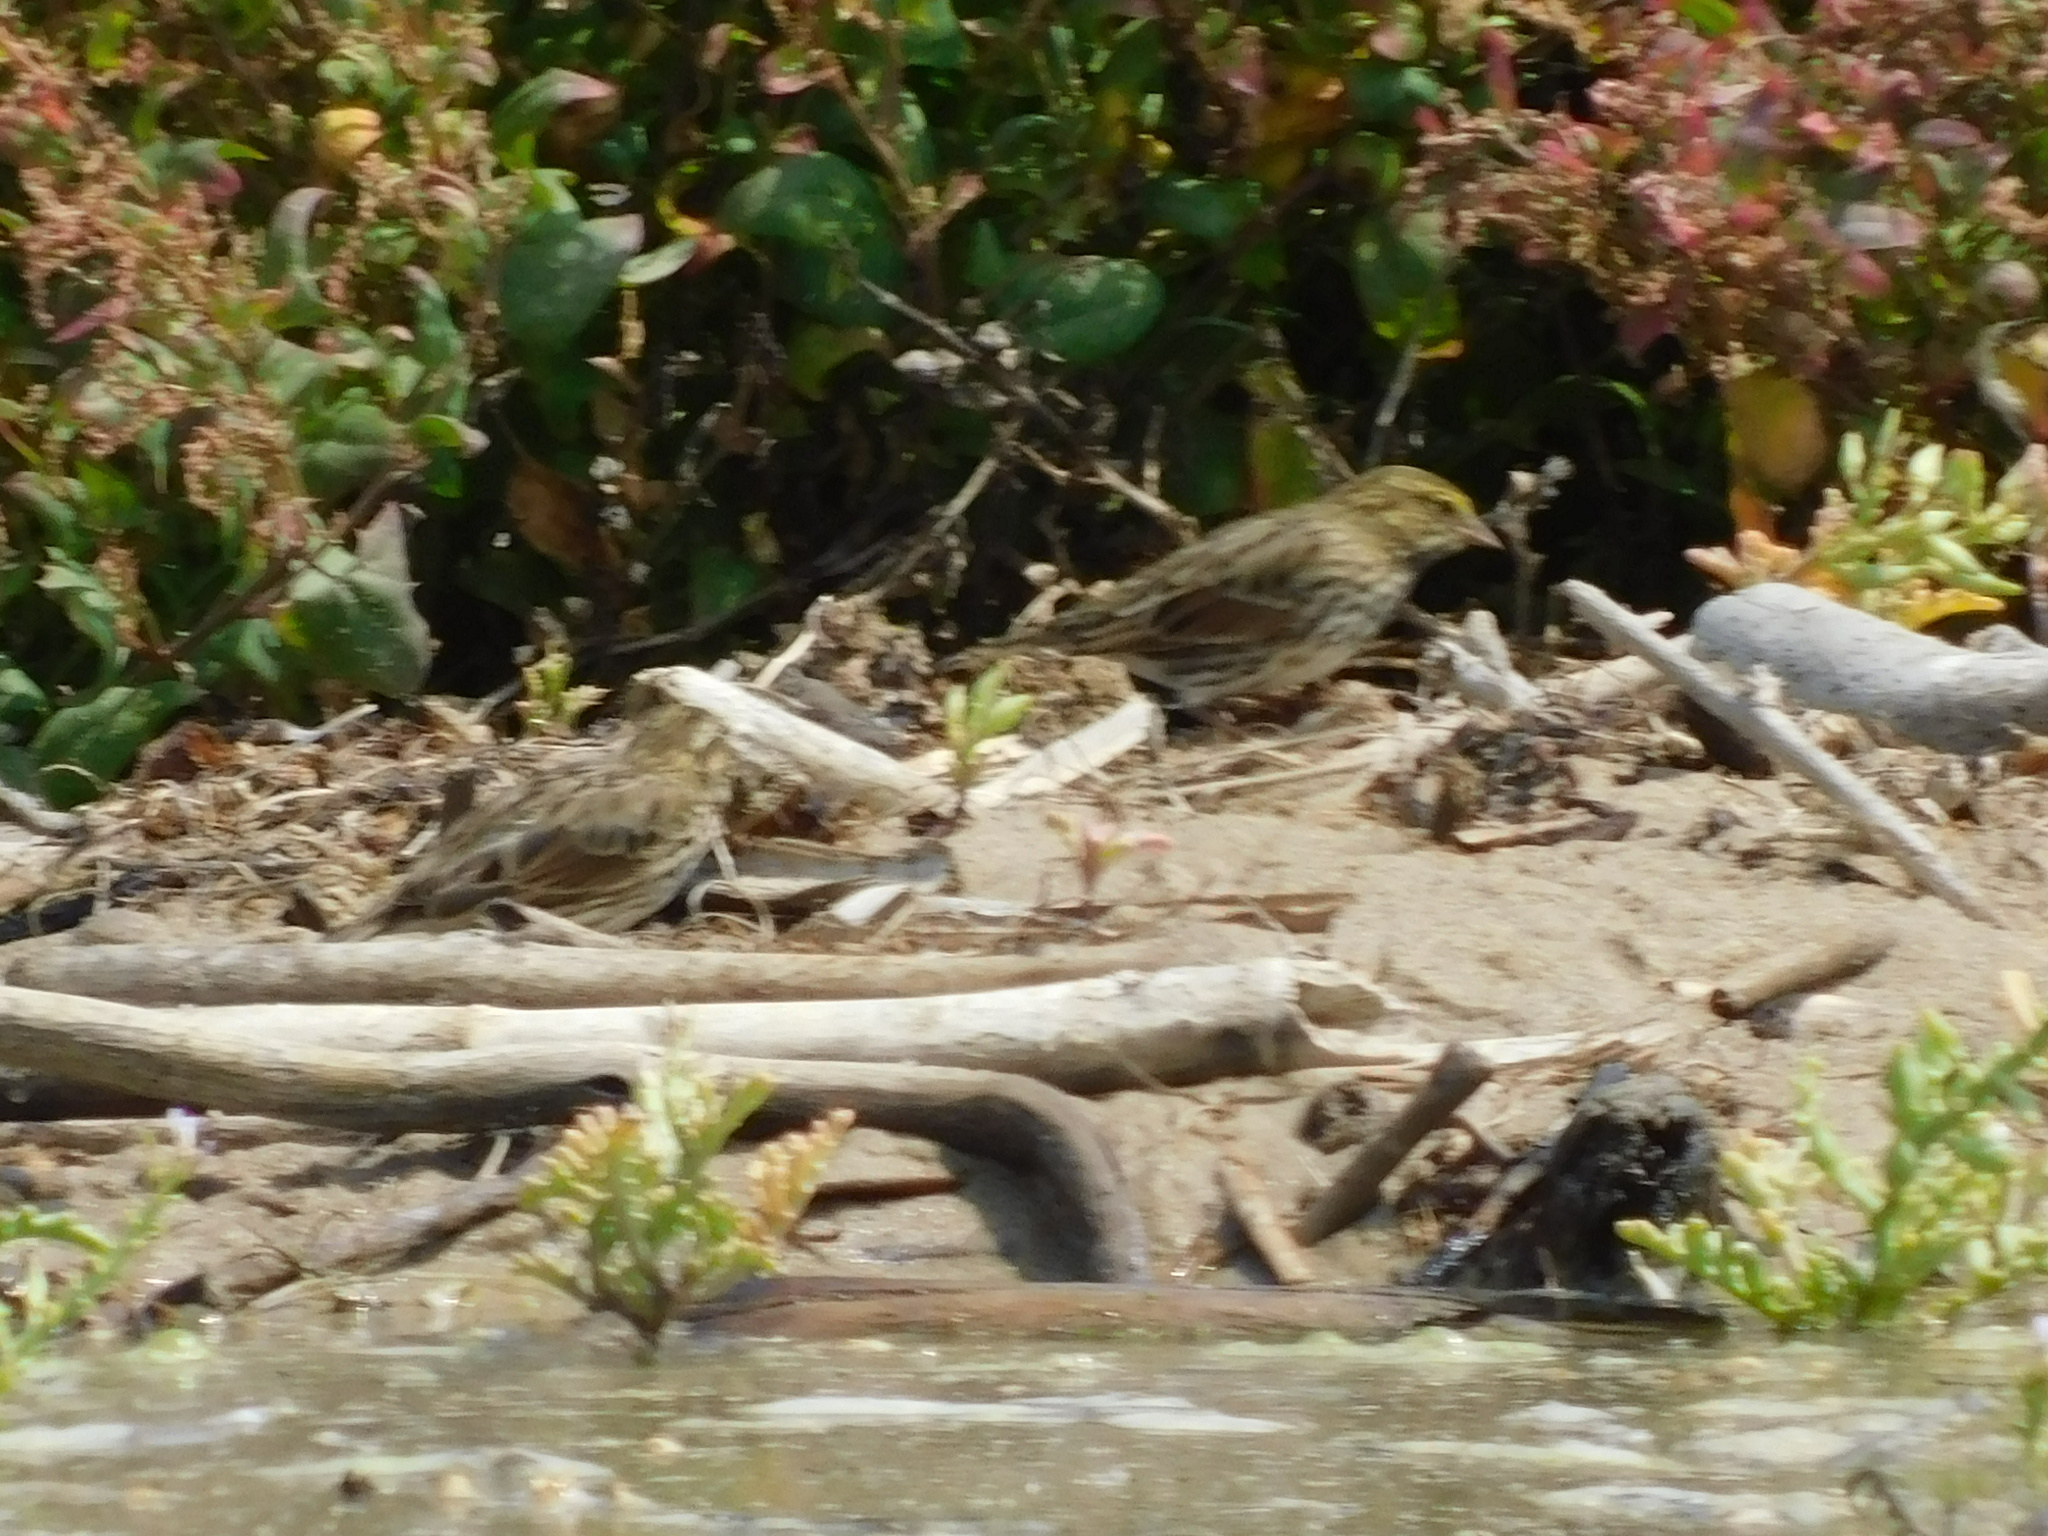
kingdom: Animalia
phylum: Chordata
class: Aves
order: Passeriformes
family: Passerellidae
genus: Passerculus
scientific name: Passerculus sandwichensis
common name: Savannah sparrow
